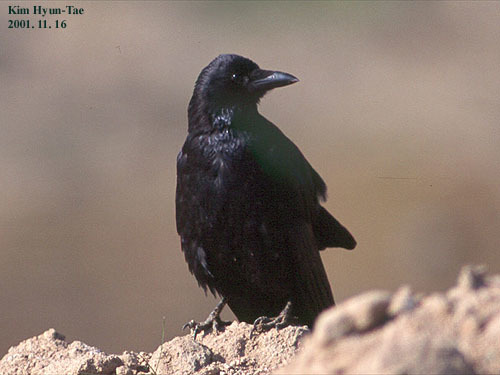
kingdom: Animalia
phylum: Chordata
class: Aves
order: Passeriformes
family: Corvidae
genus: Corvus
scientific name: Corvus corone
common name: Carrion crow
